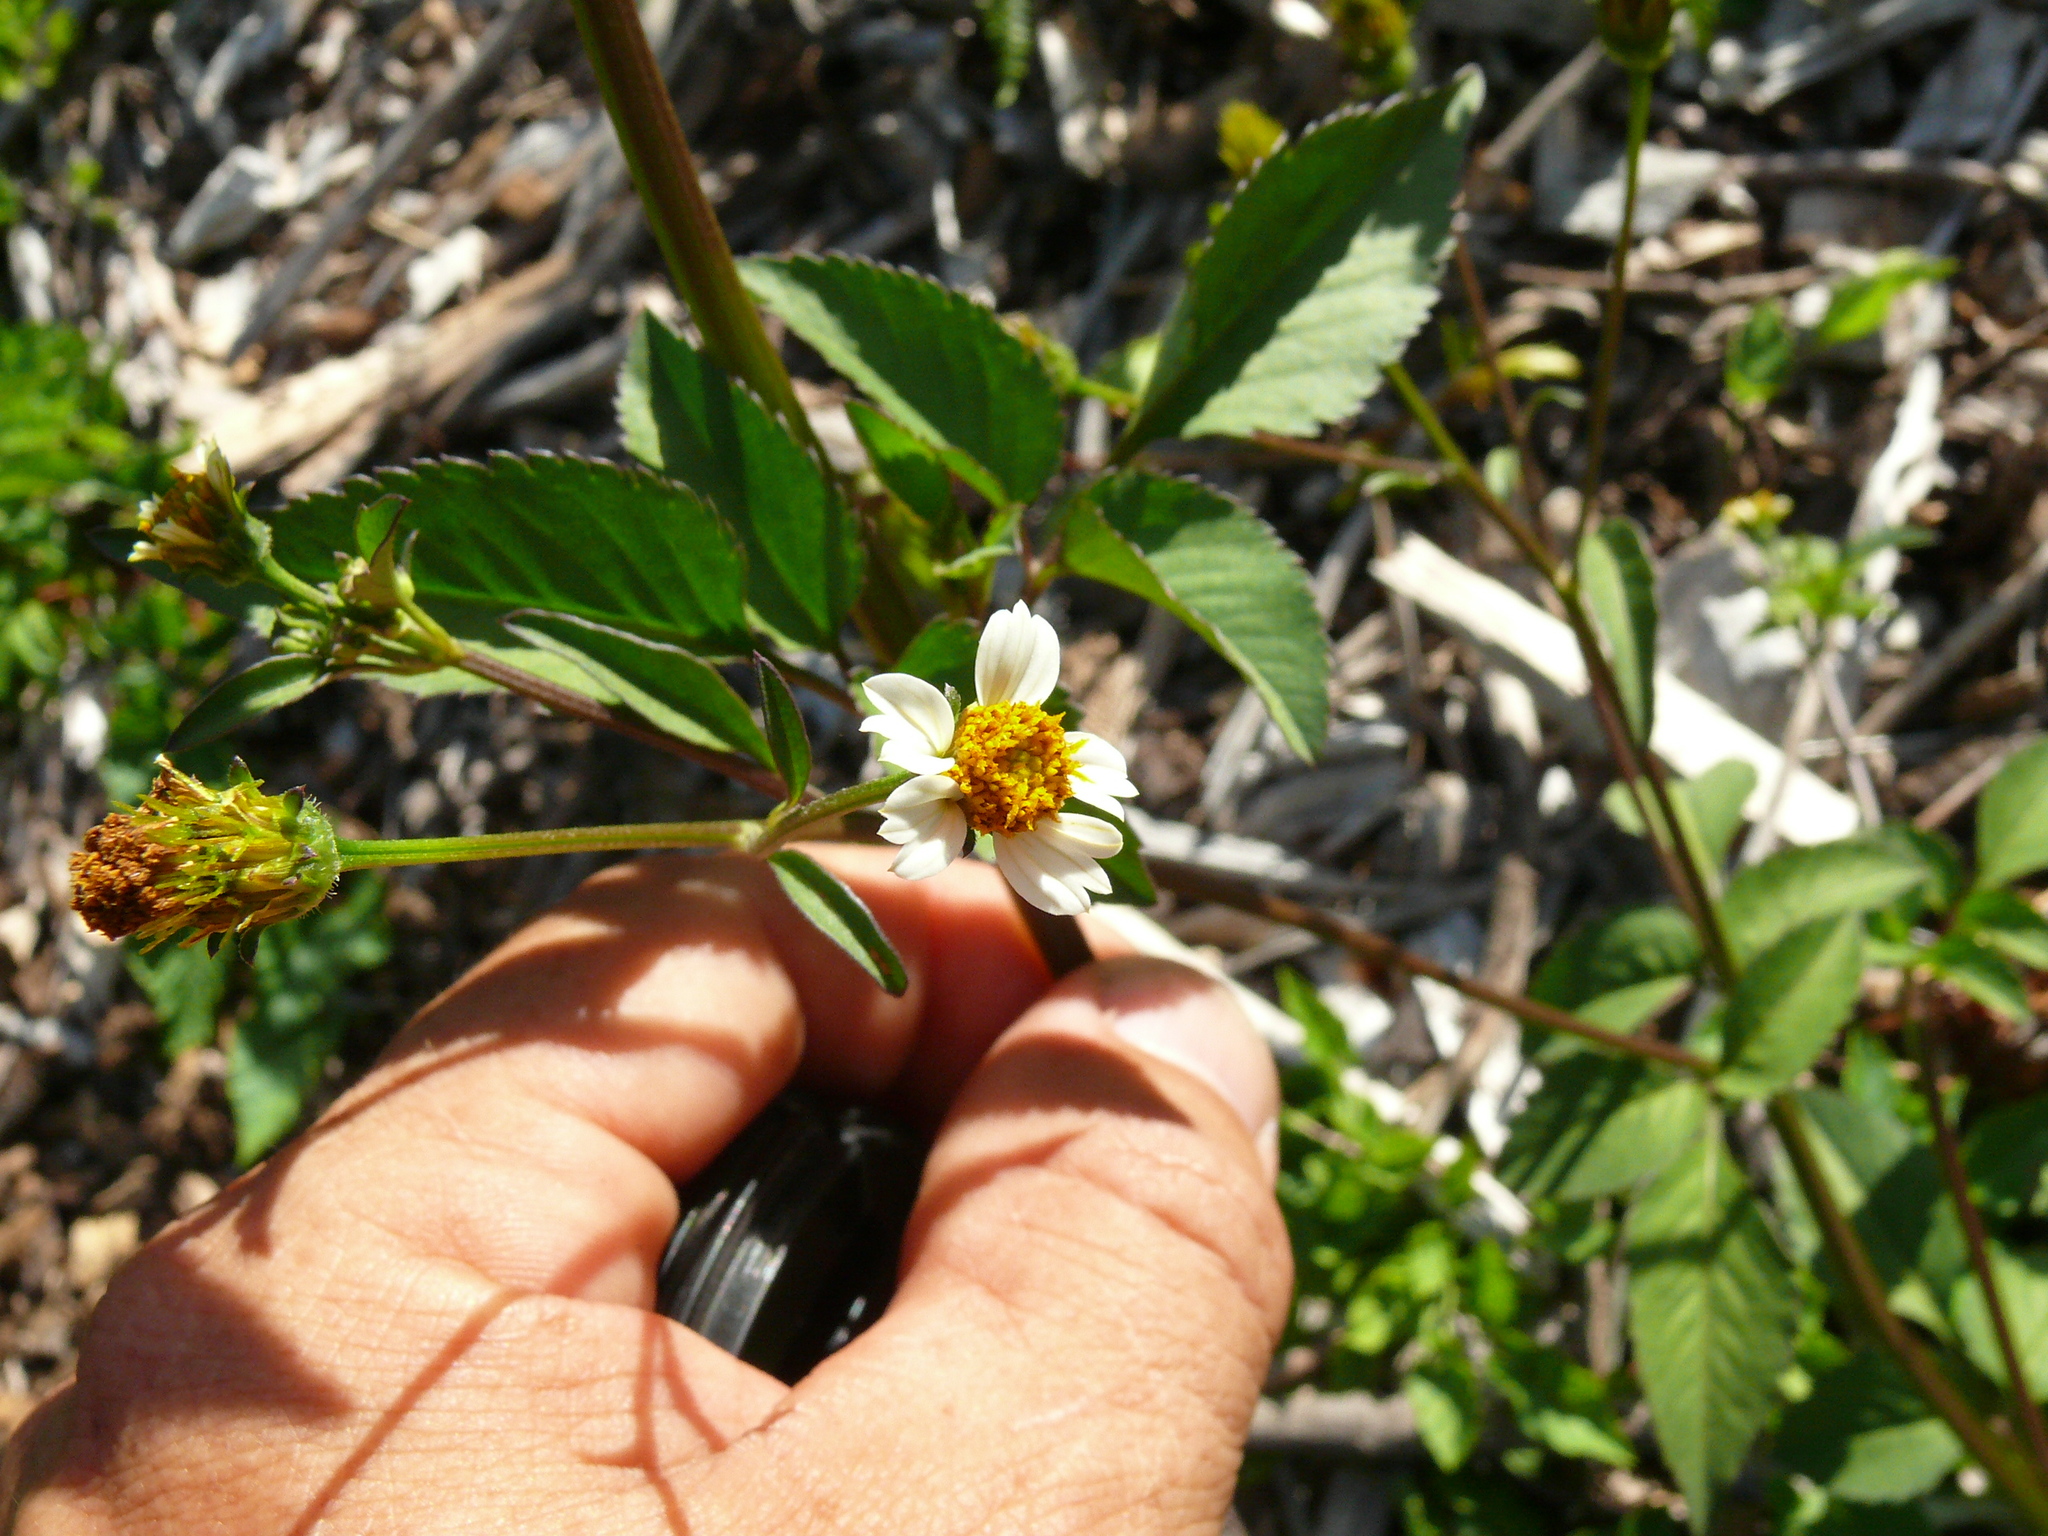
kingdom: Plantae
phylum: Tracheophyta
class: Magnoliopsida
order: Asterales
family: Asteraceae
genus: Bidens
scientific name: Bidens pilosa
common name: Black-jack
